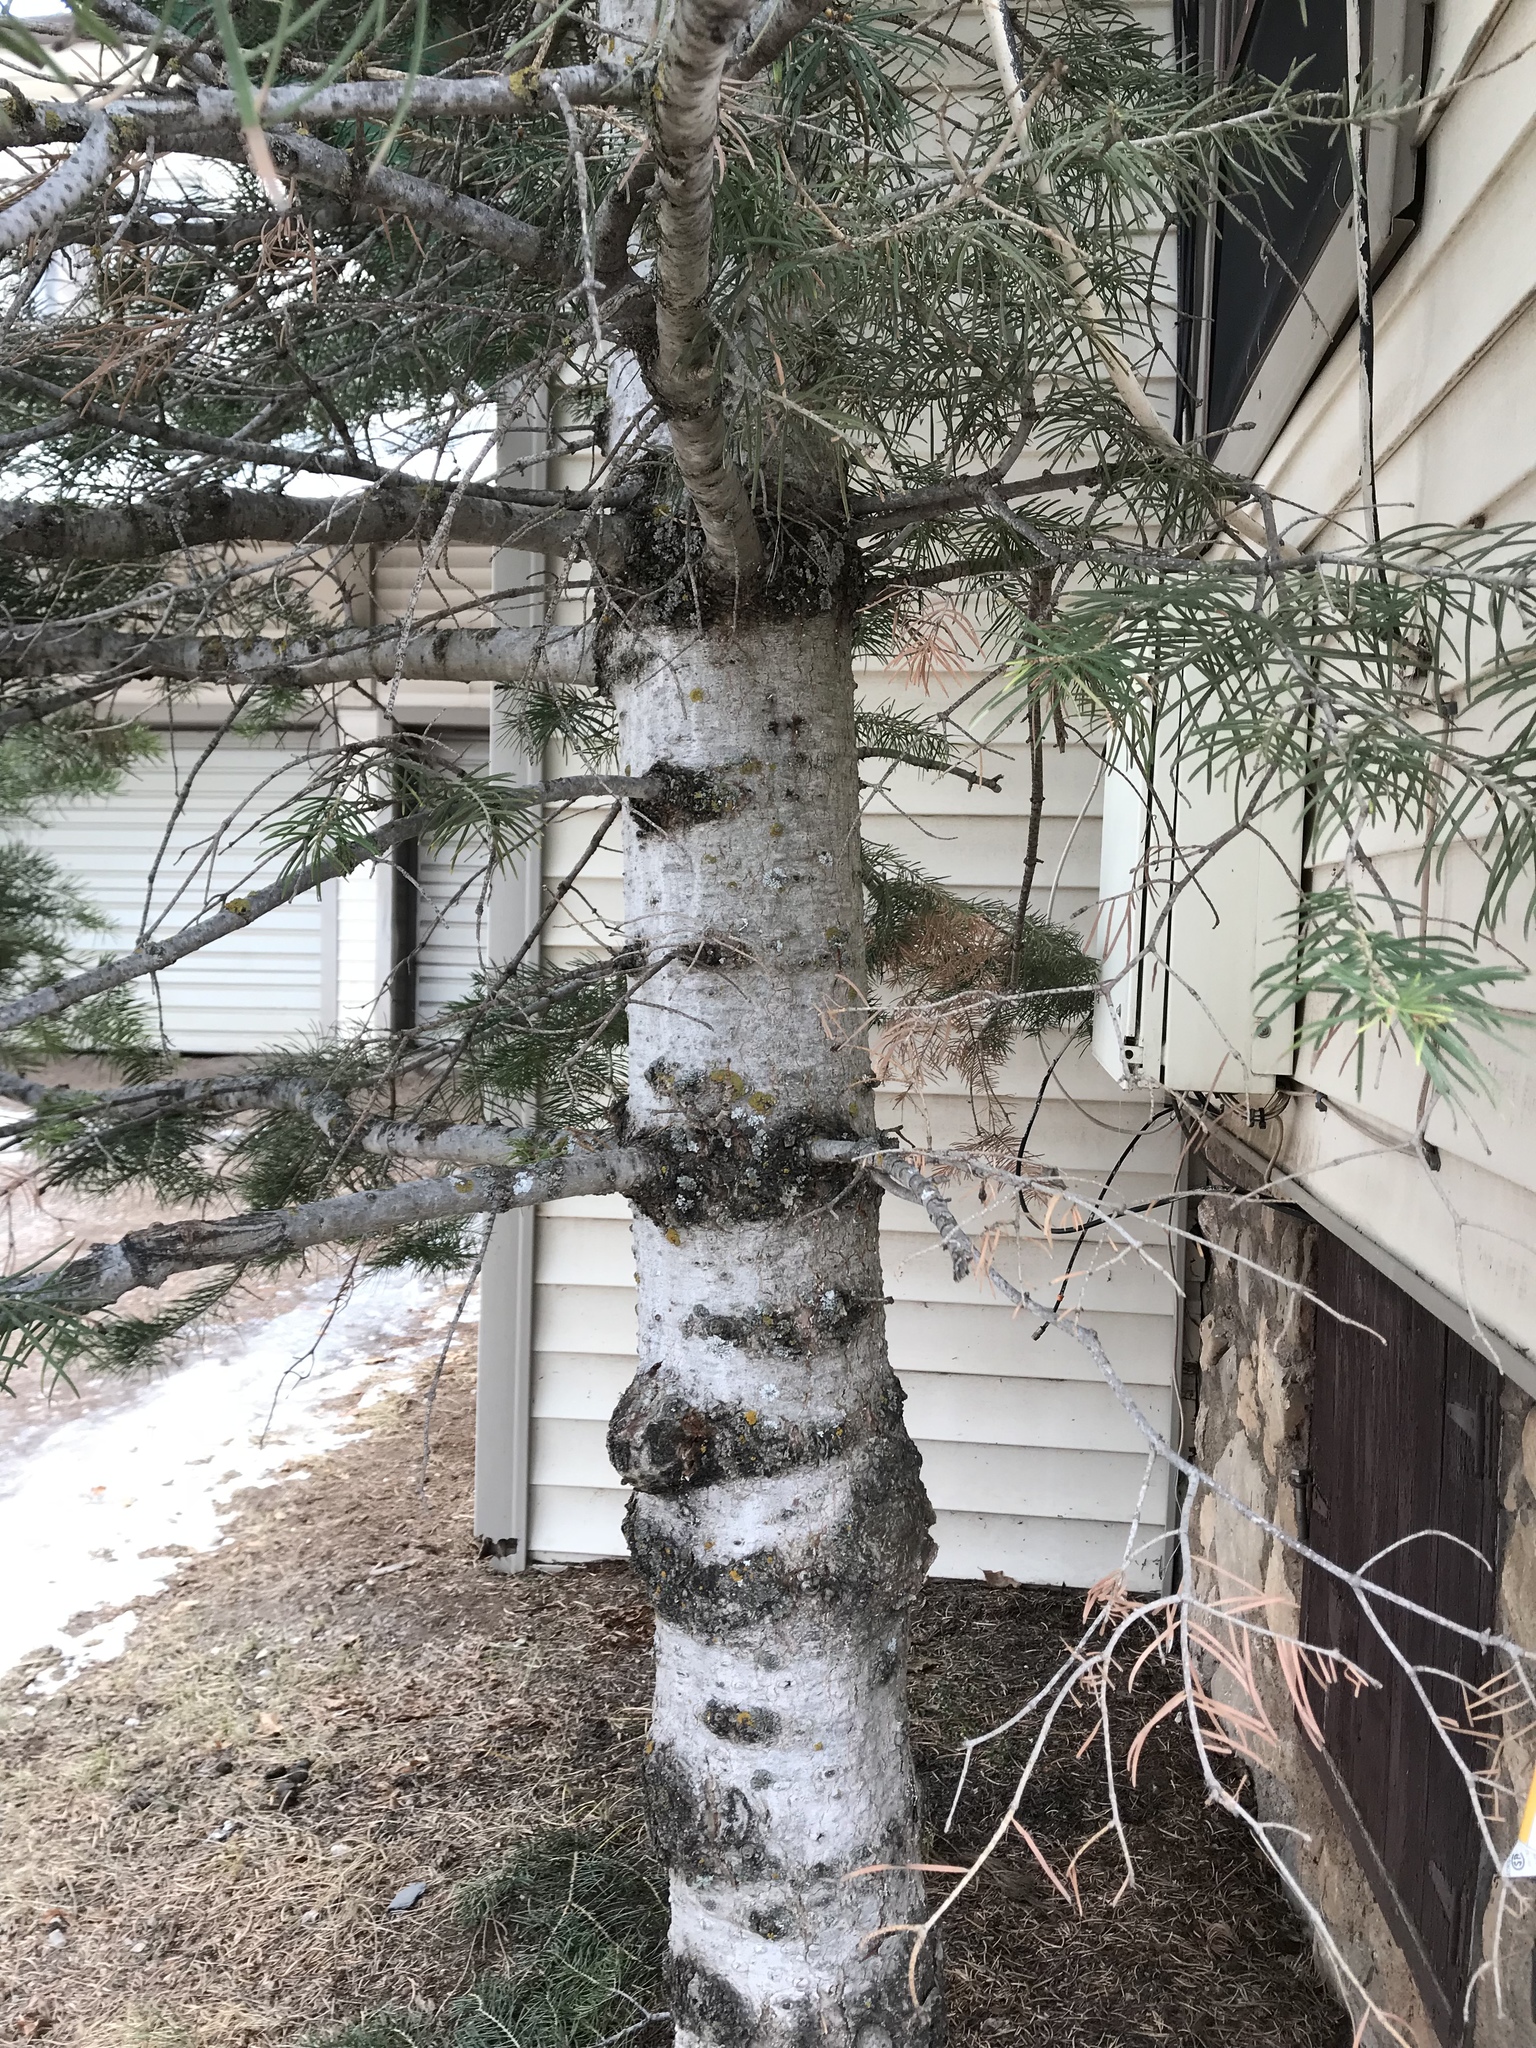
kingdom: Plantae
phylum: Tracheophyta
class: Pinopsida
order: Pinales
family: Pinaceae
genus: Abies
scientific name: Abies concolor
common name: Colorado fir
